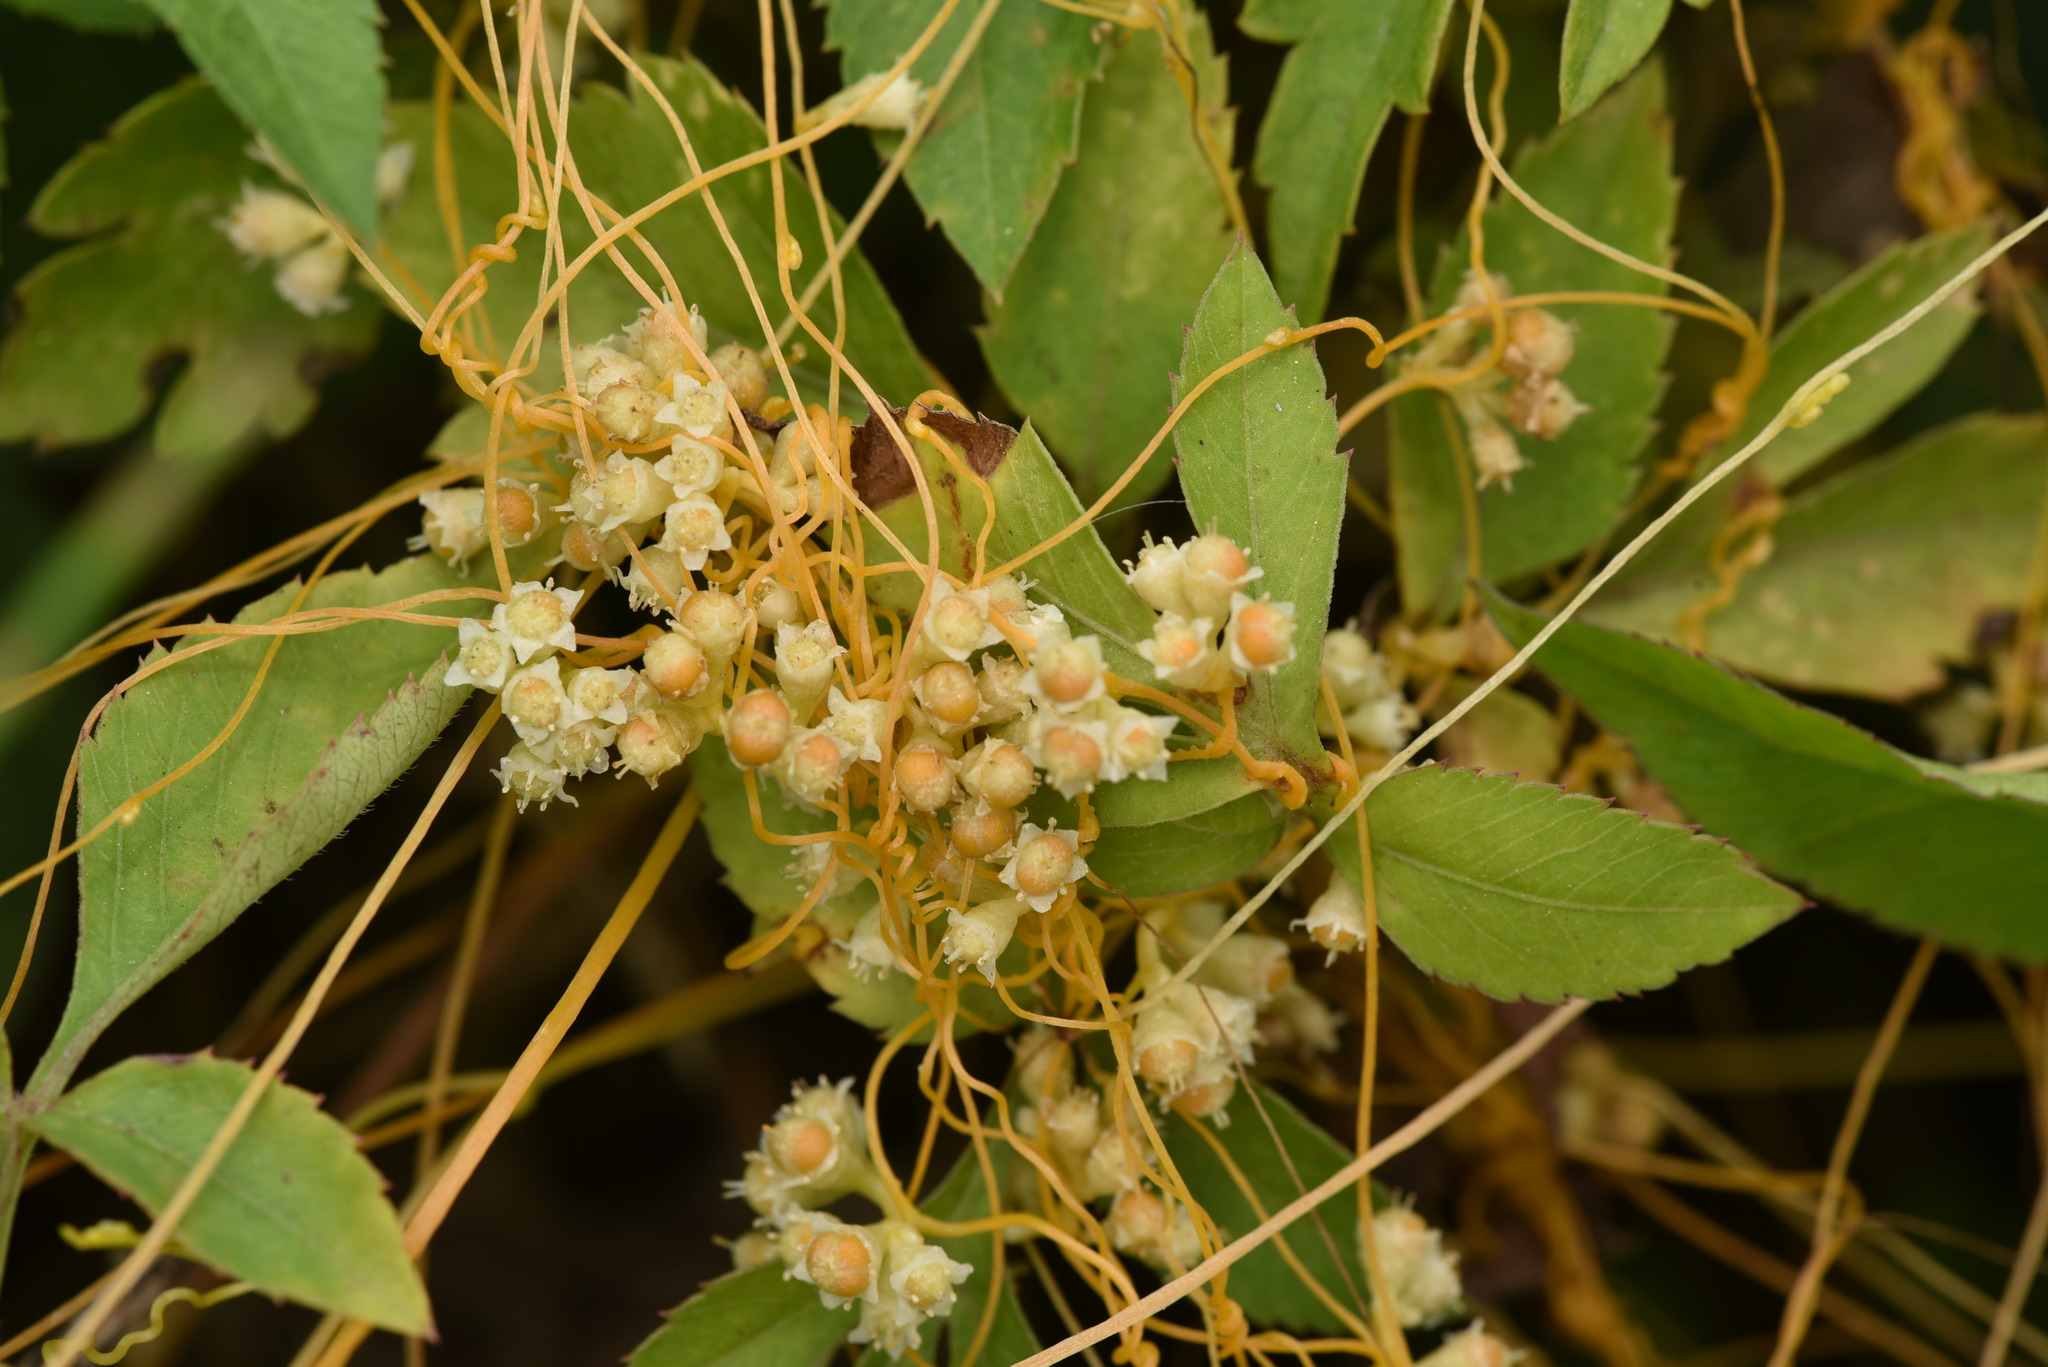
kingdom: Plantae
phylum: Tracheophyta
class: Magnoliopsida
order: Solanales
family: Convolvulaceae
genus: Cuscuta
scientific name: Cuscuta campestris
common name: Yellow dodder
